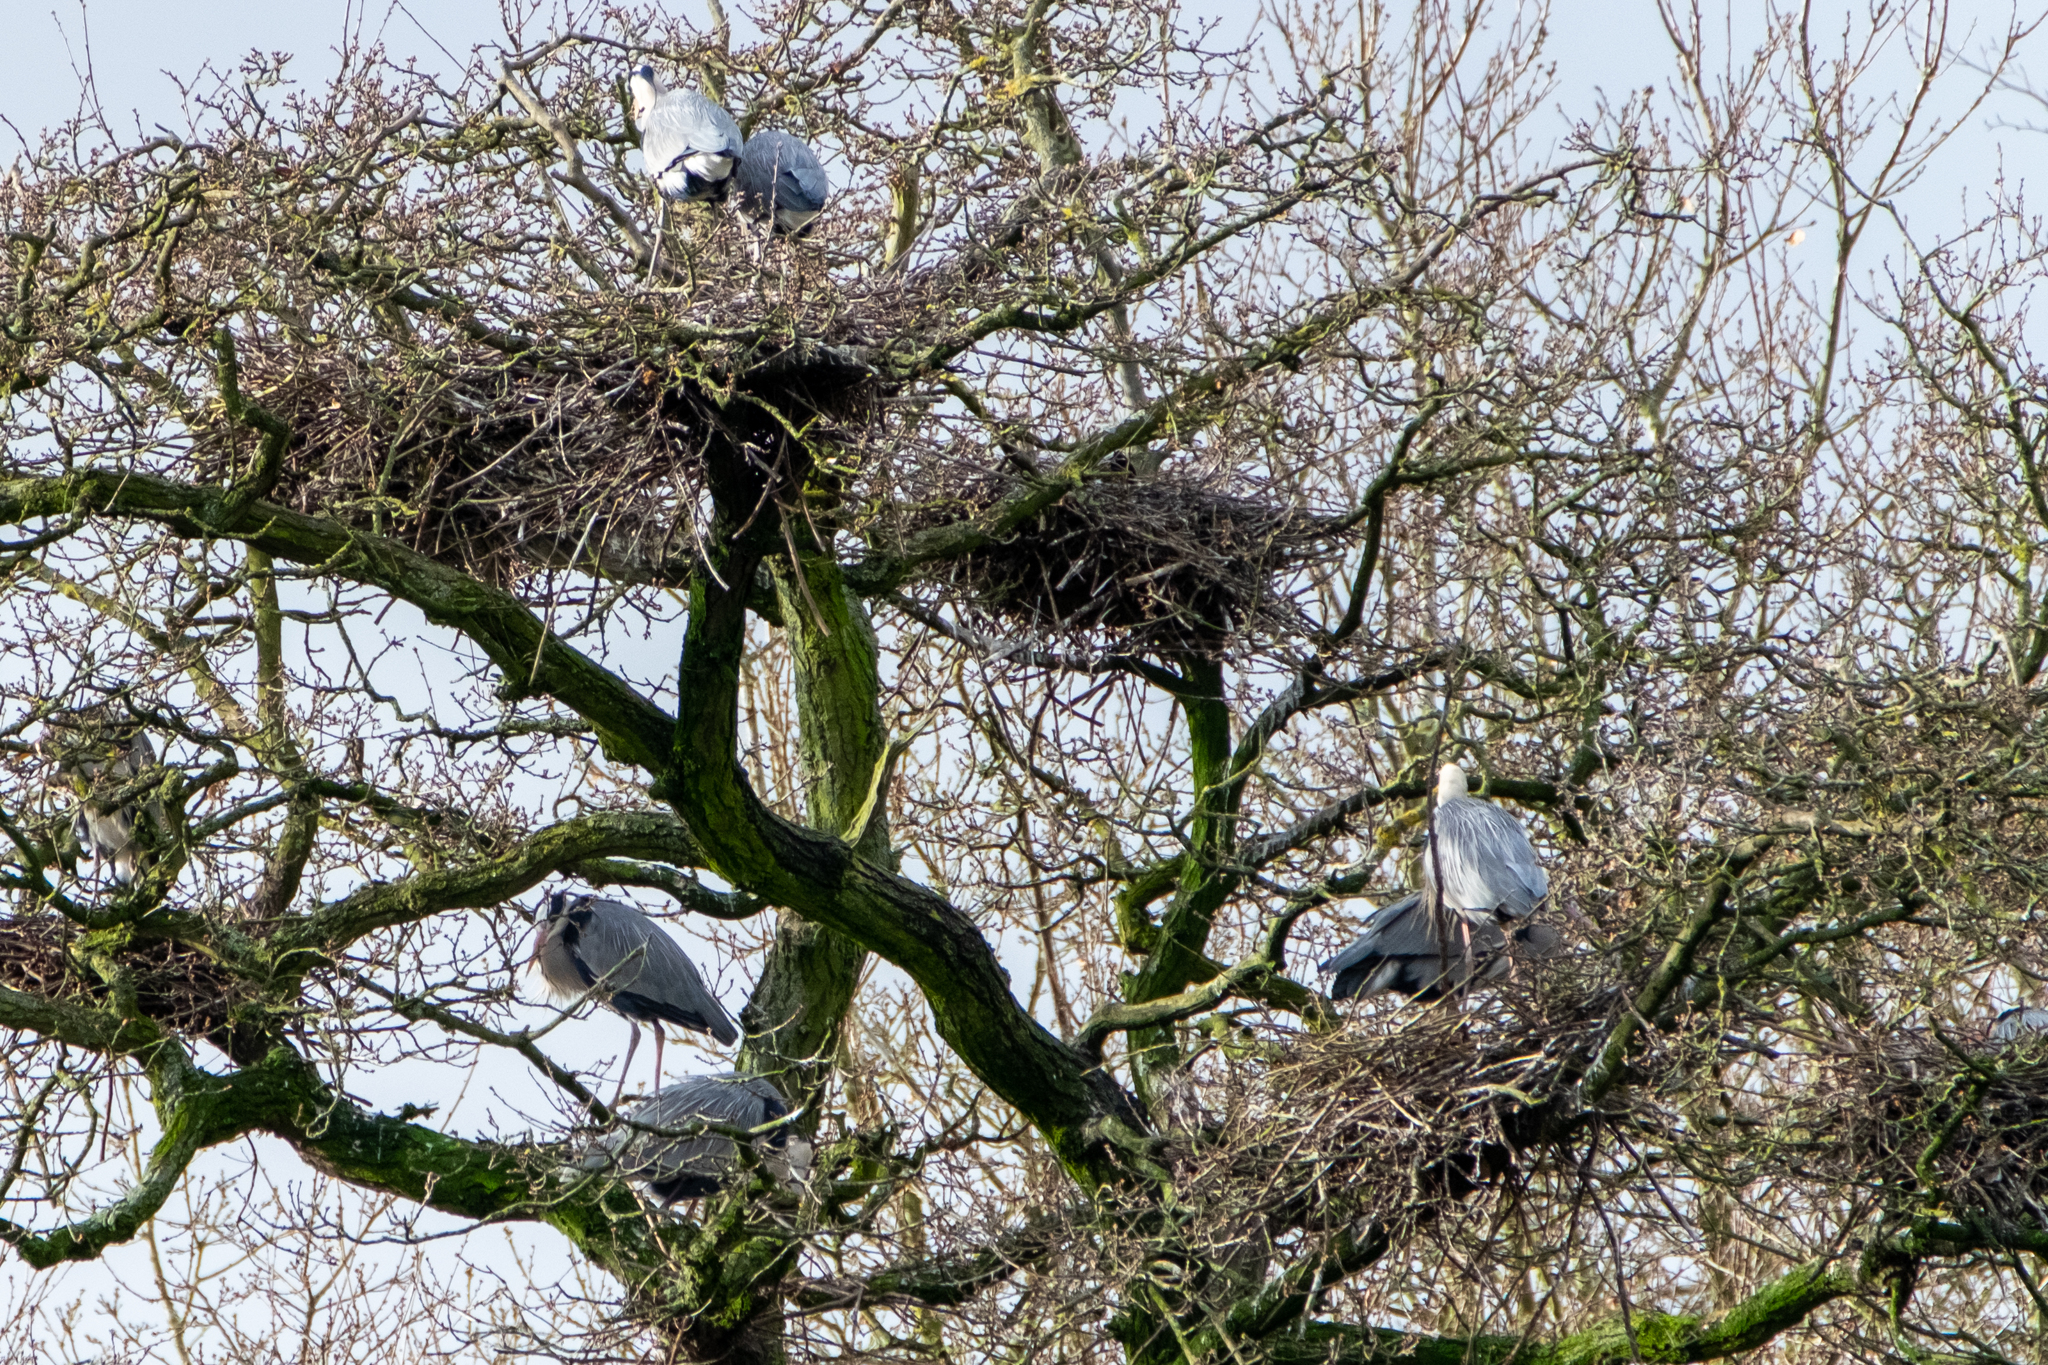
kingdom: Animalia
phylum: Chordata
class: Aves
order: Pelecaniformes
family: Ardeidae
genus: Ardea
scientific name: Ardea cinerea
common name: Grey heron
